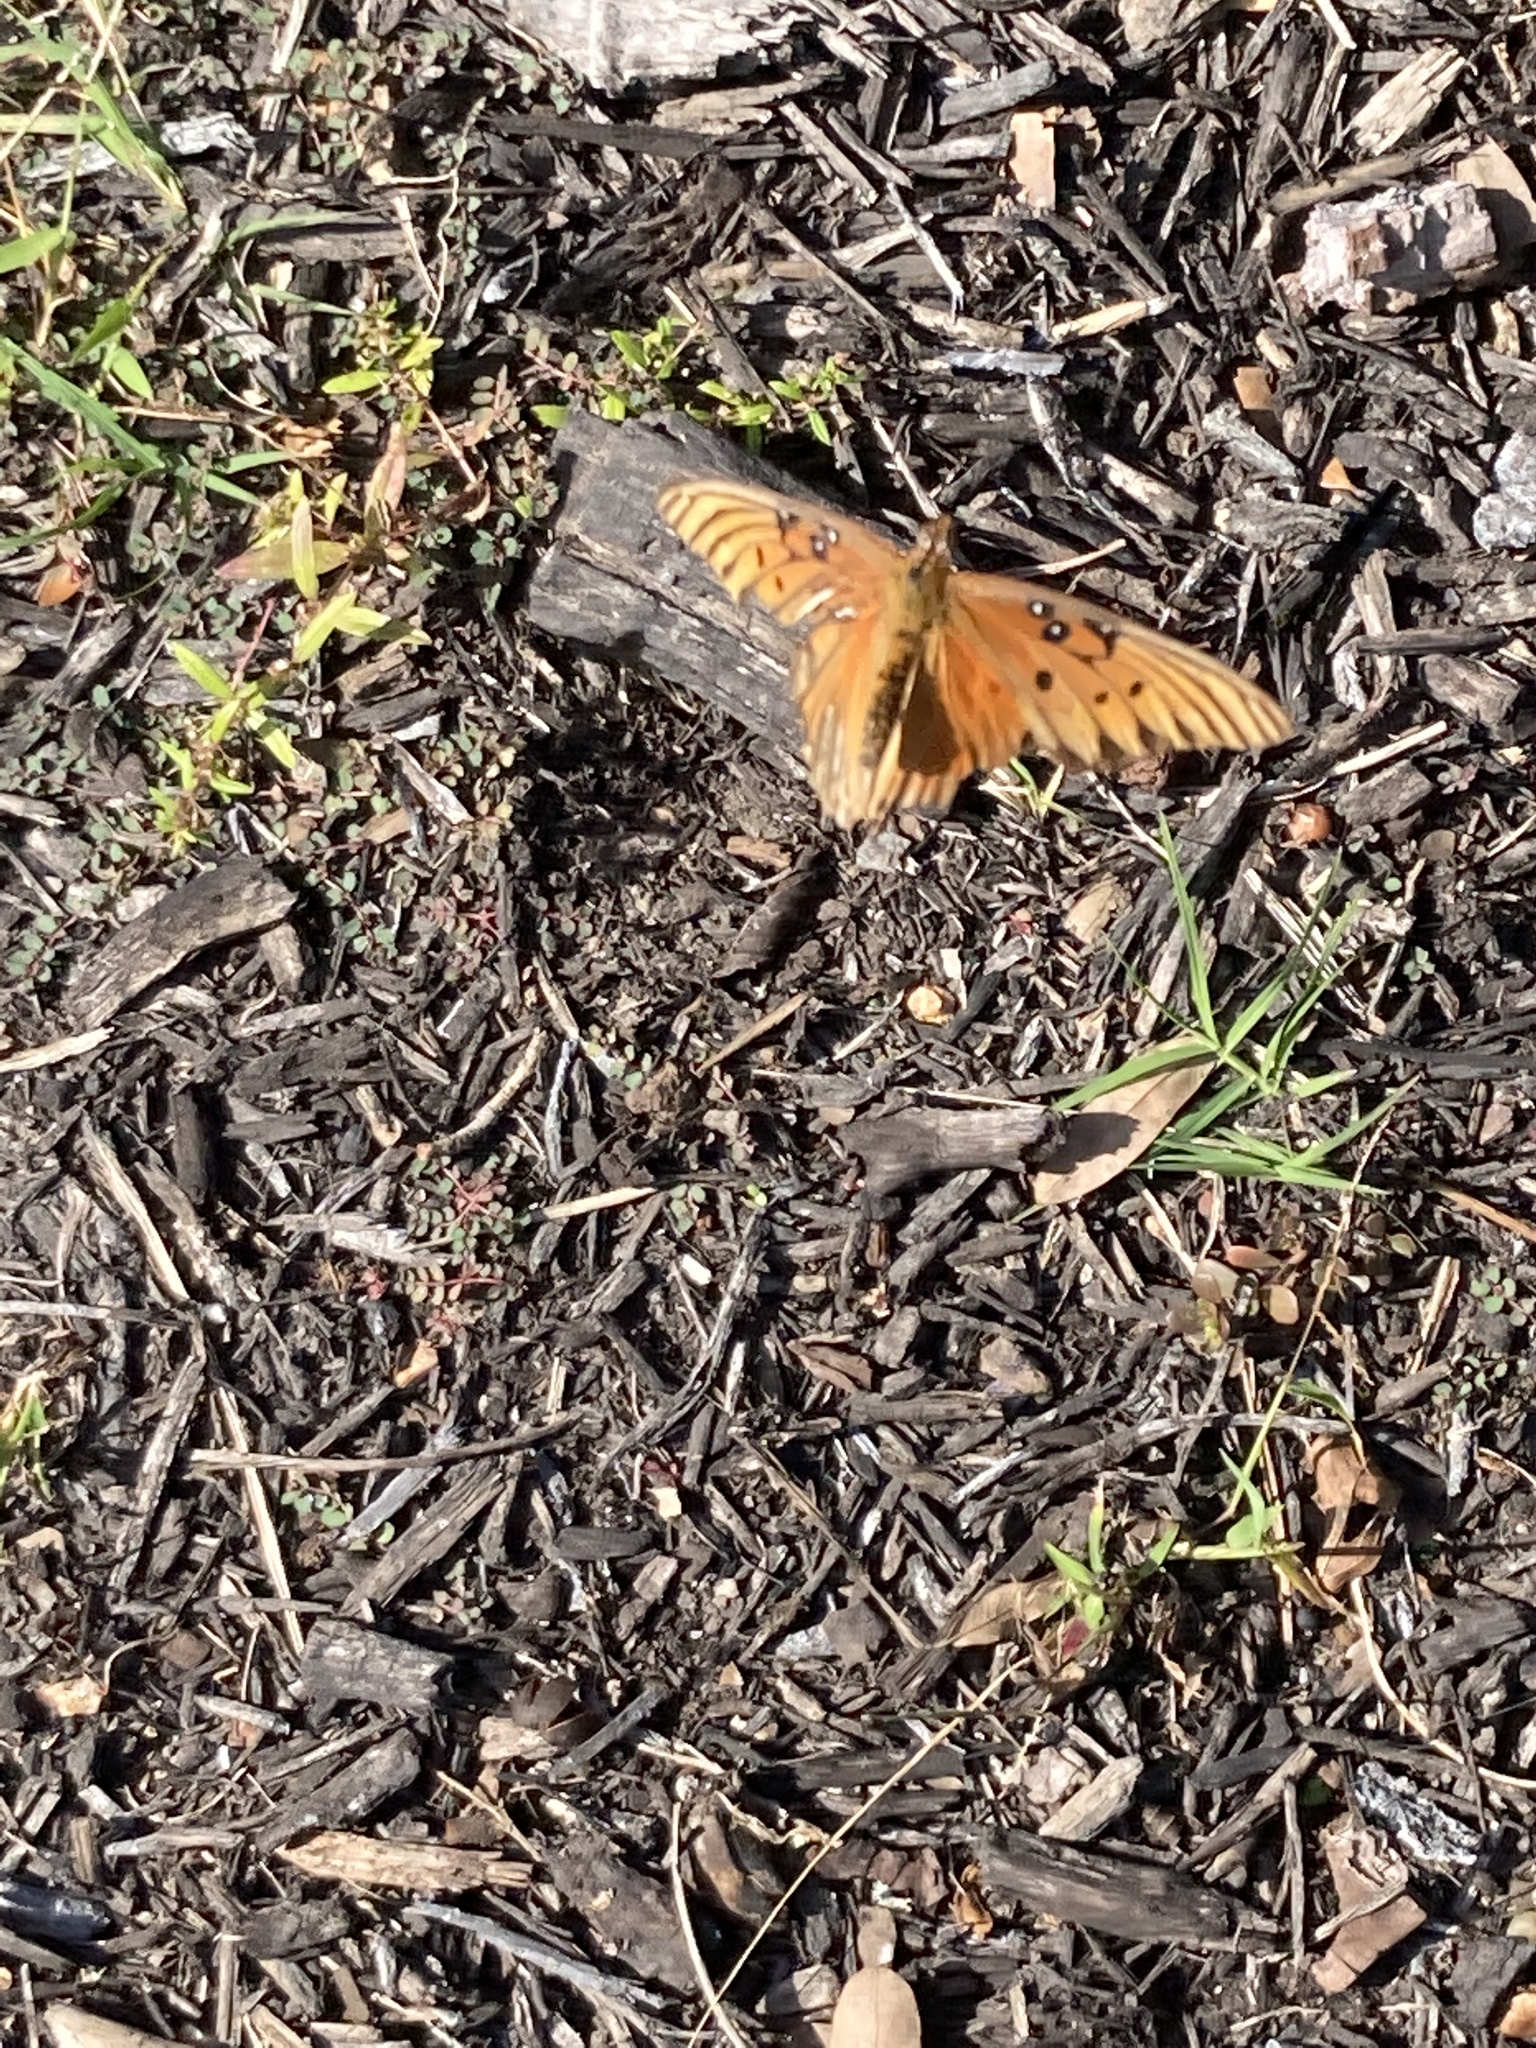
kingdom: Animalia
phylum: Arthropoda
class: Insecta
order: Lepidoptera
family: Nymphalidae
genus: Dione
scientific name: Dione vanillae
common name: Gulf fritillary
